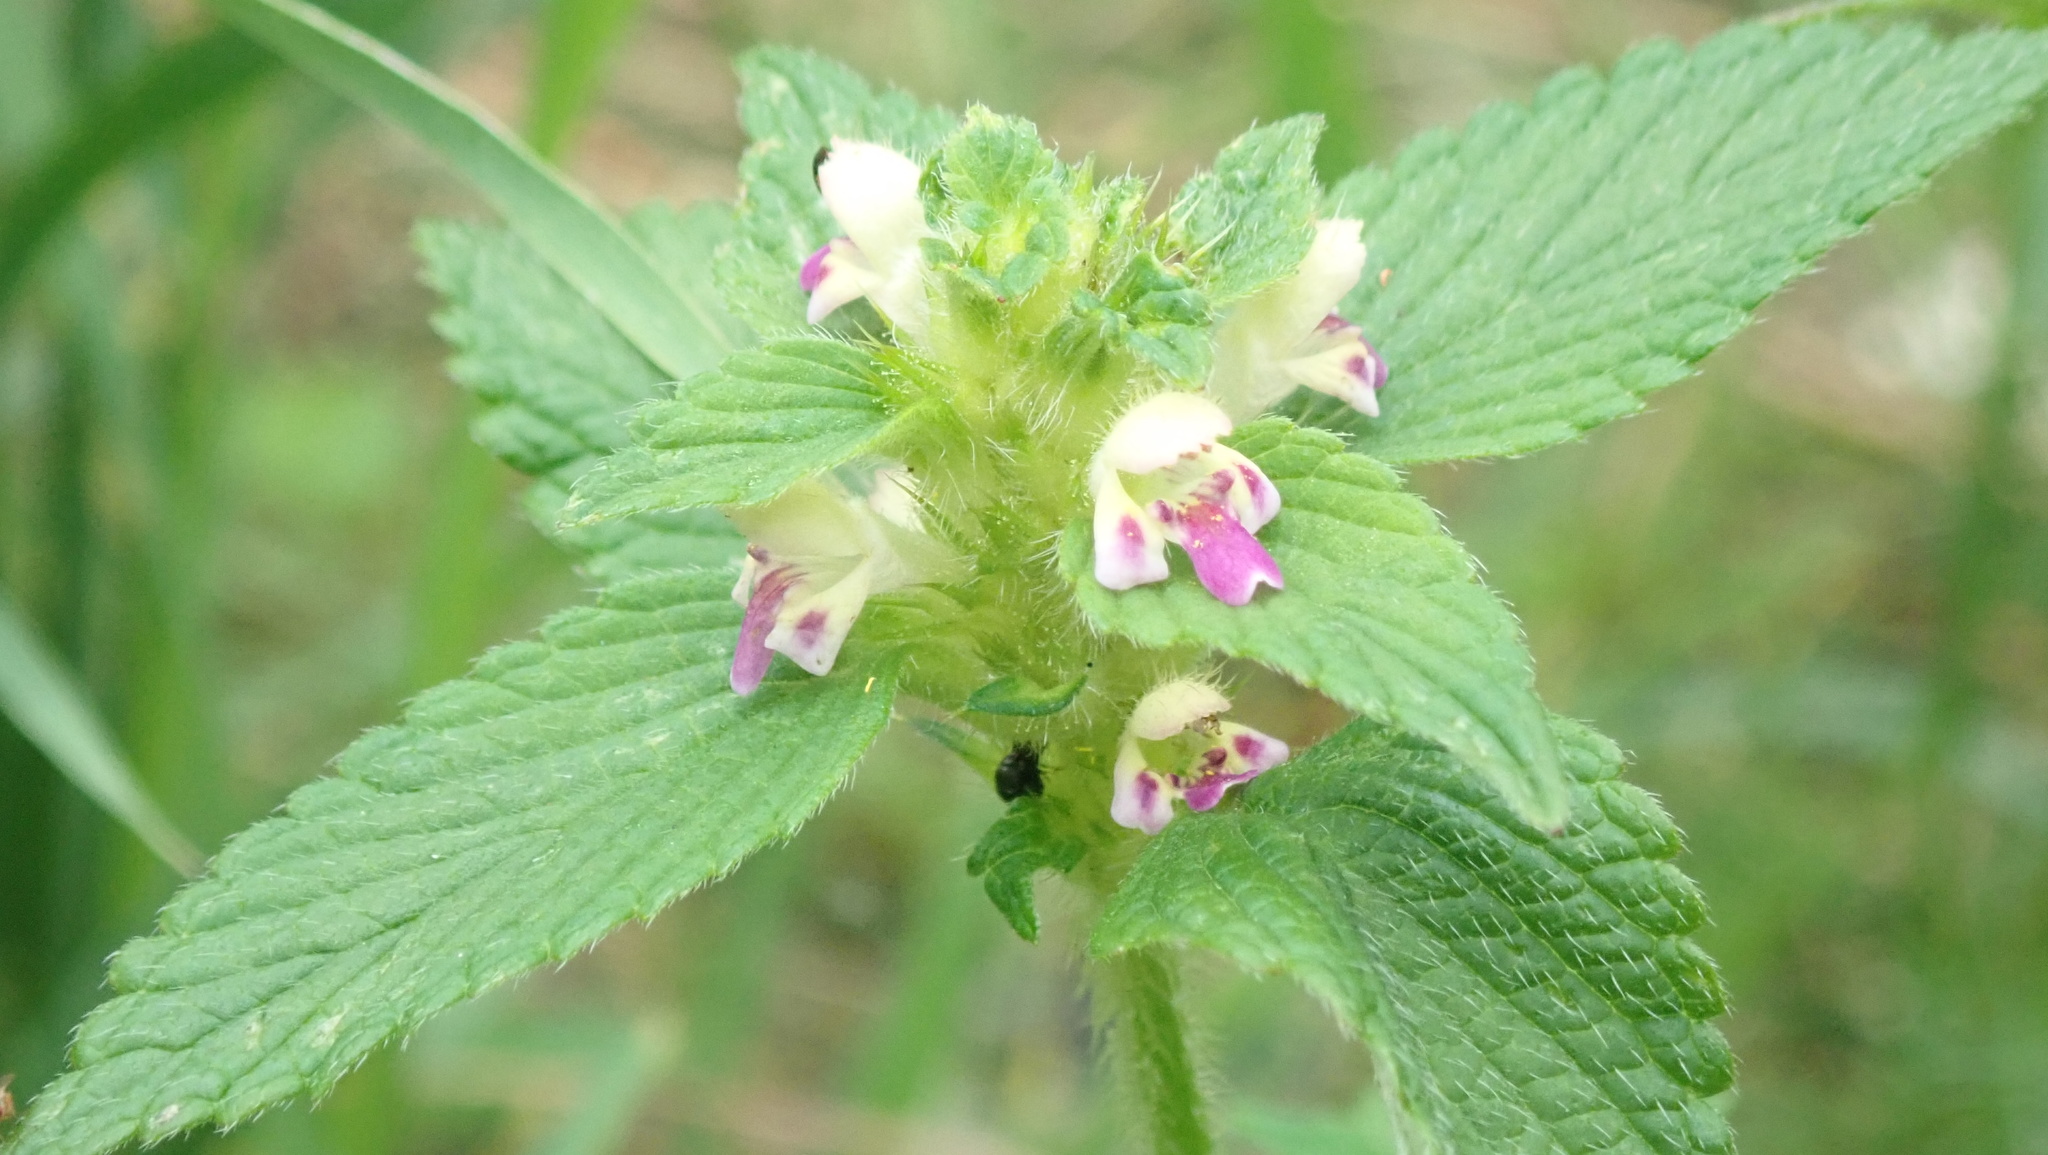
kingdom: Plantae
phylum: Tracheophyta
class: Magnoliopsida
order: Lamiales
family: Lamiaceae
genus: Galeopsis
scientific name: Galeopsis bifida
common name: Bifid hemp-nettle
